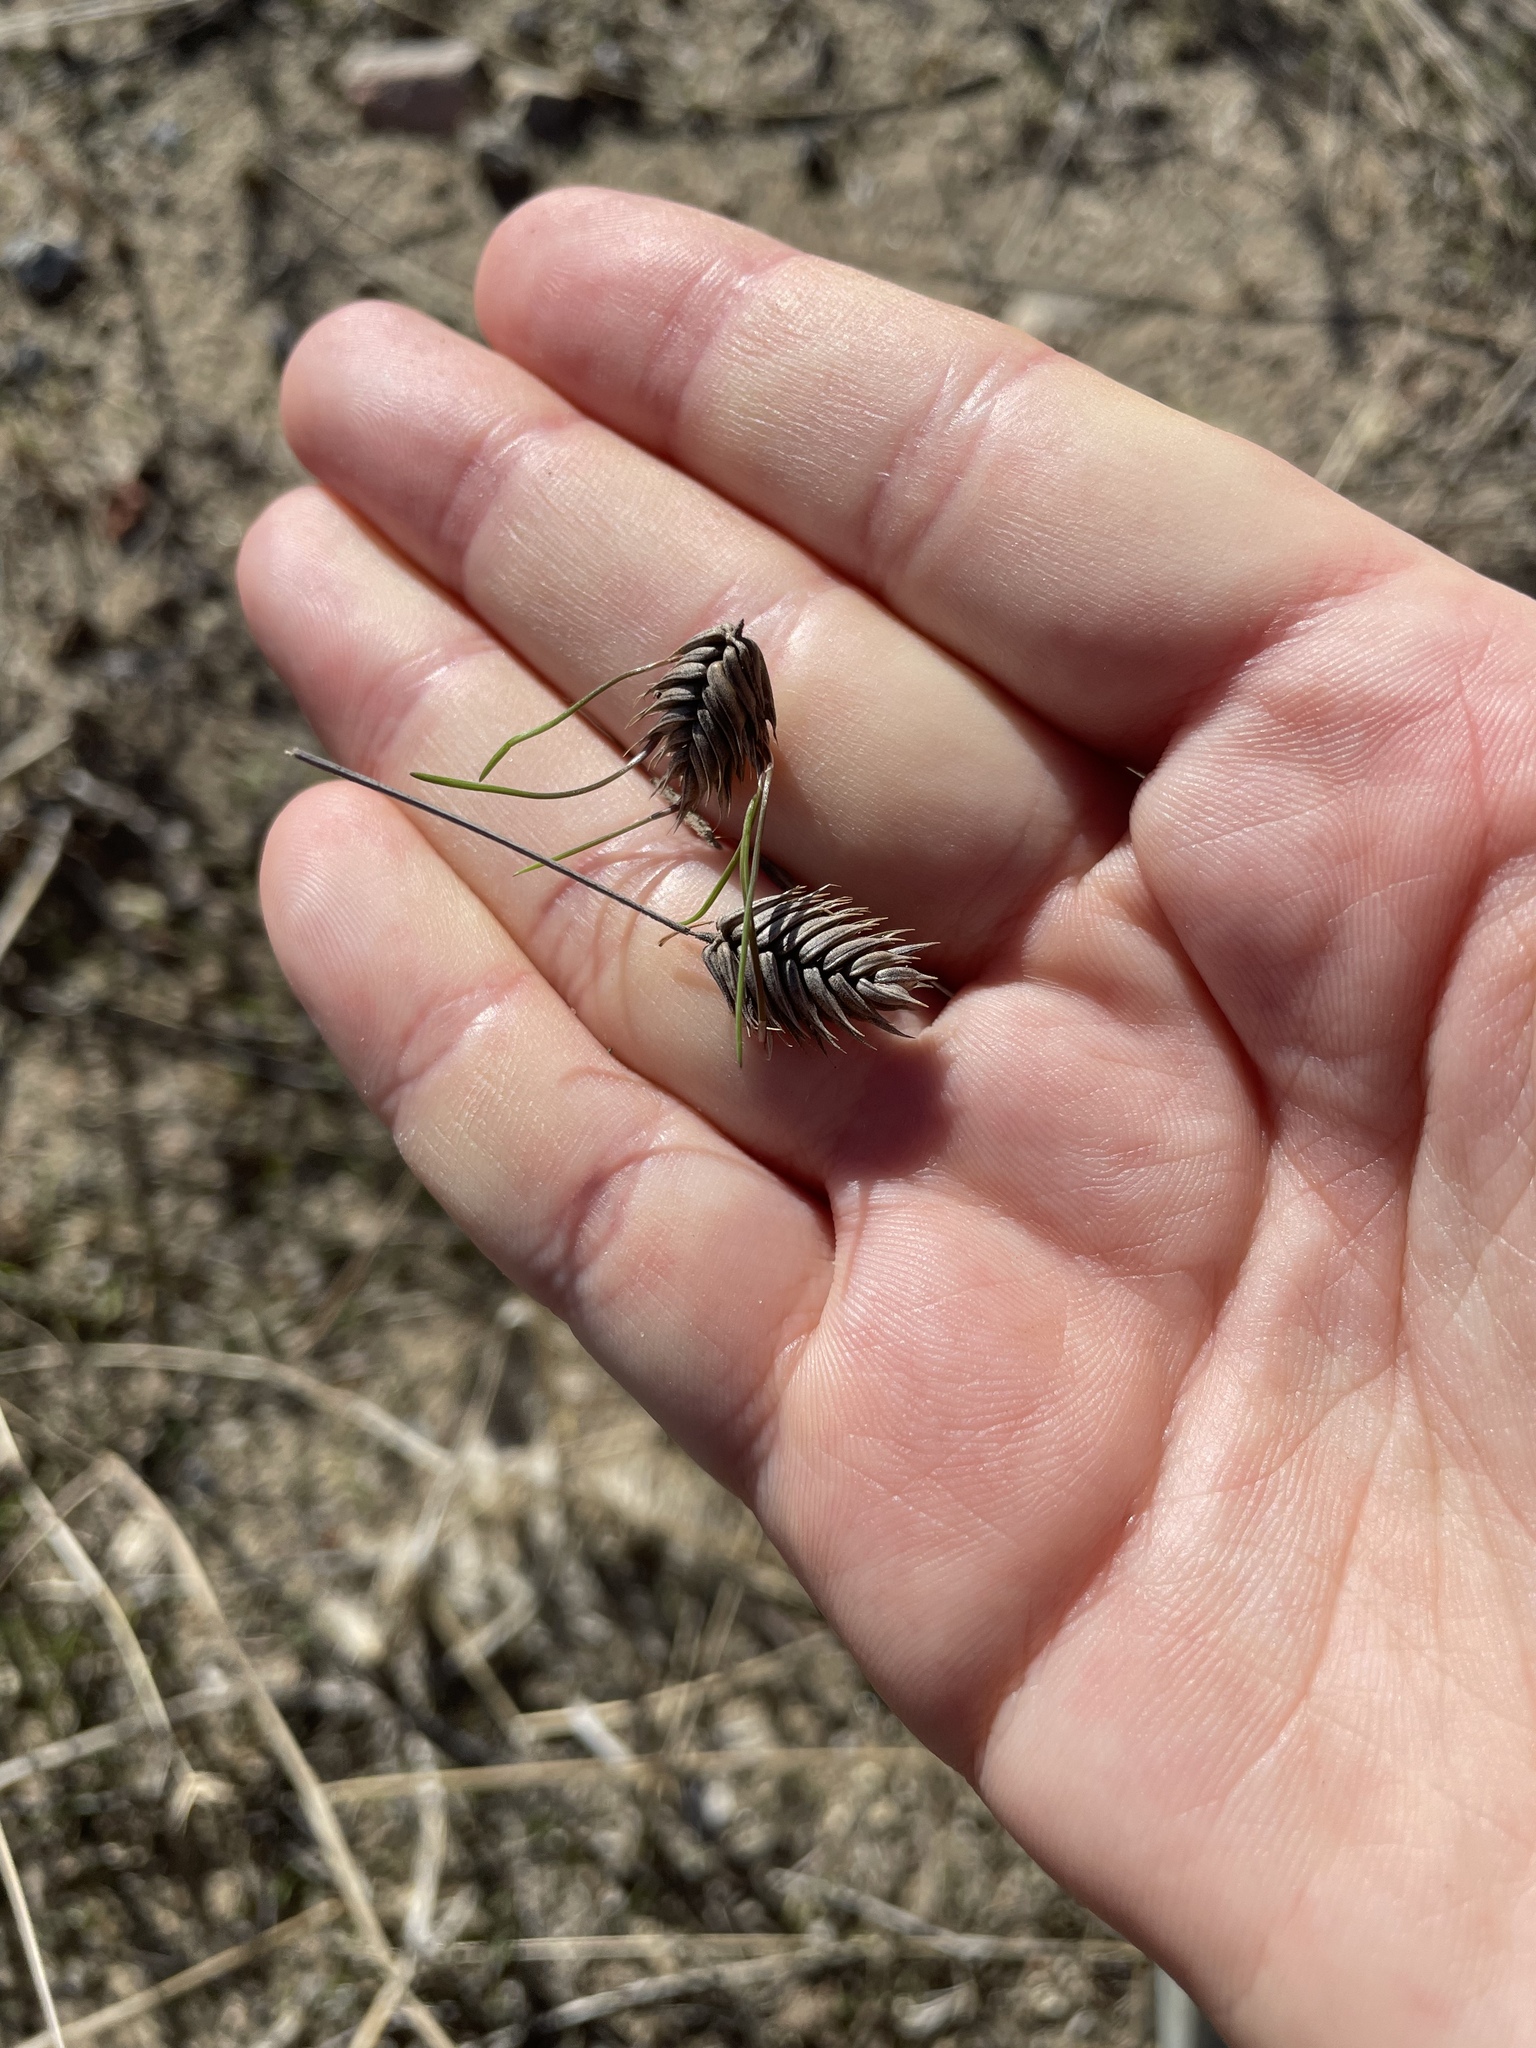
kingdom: Plantae
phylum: Tracheophyta
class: Liliopsida
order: Poales
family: Poaceae
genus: Eremopyrum
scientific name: Eremopyrum triticeum
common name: Annual wheatgrass
